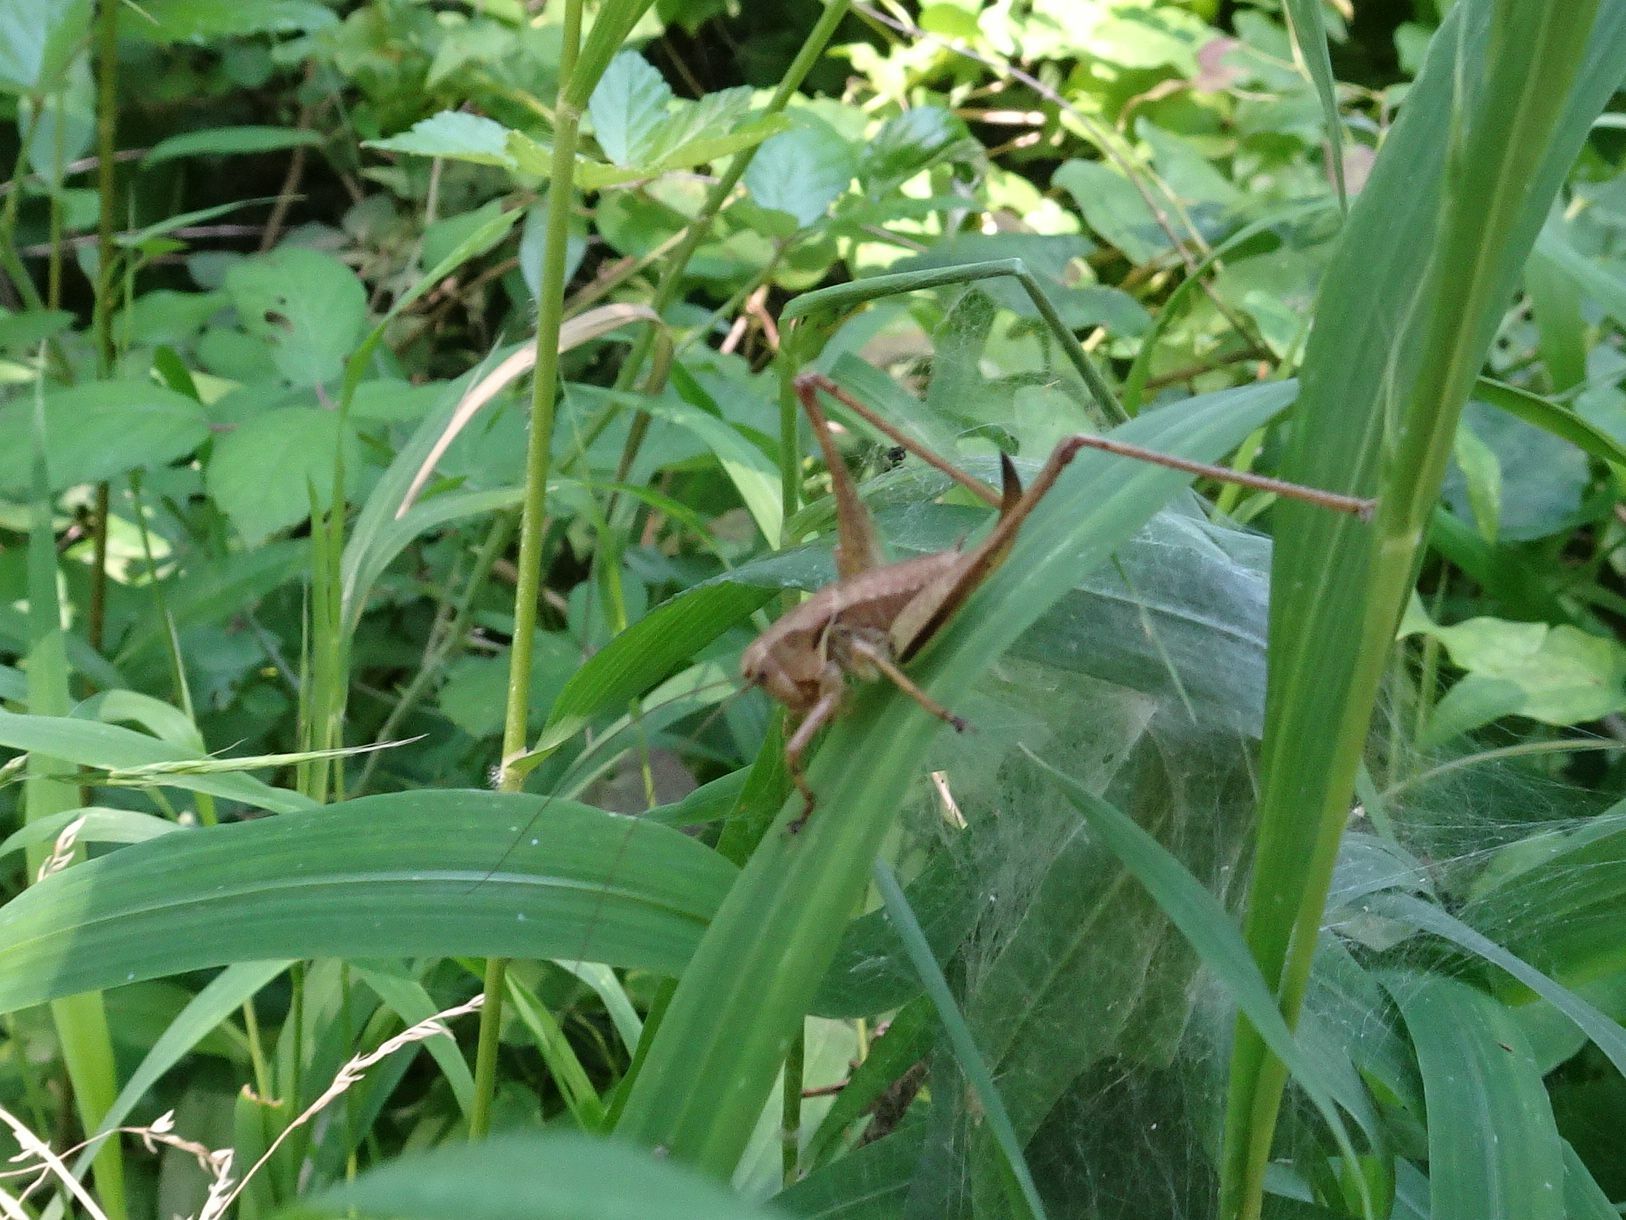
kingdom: Animalia
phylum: Arthropoda
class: Insecta
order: Orthoptera
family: Tettigoniidae
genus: Pholidoptera
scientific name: Pholidoptera griseoaptera
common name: Dark bush-cricket
